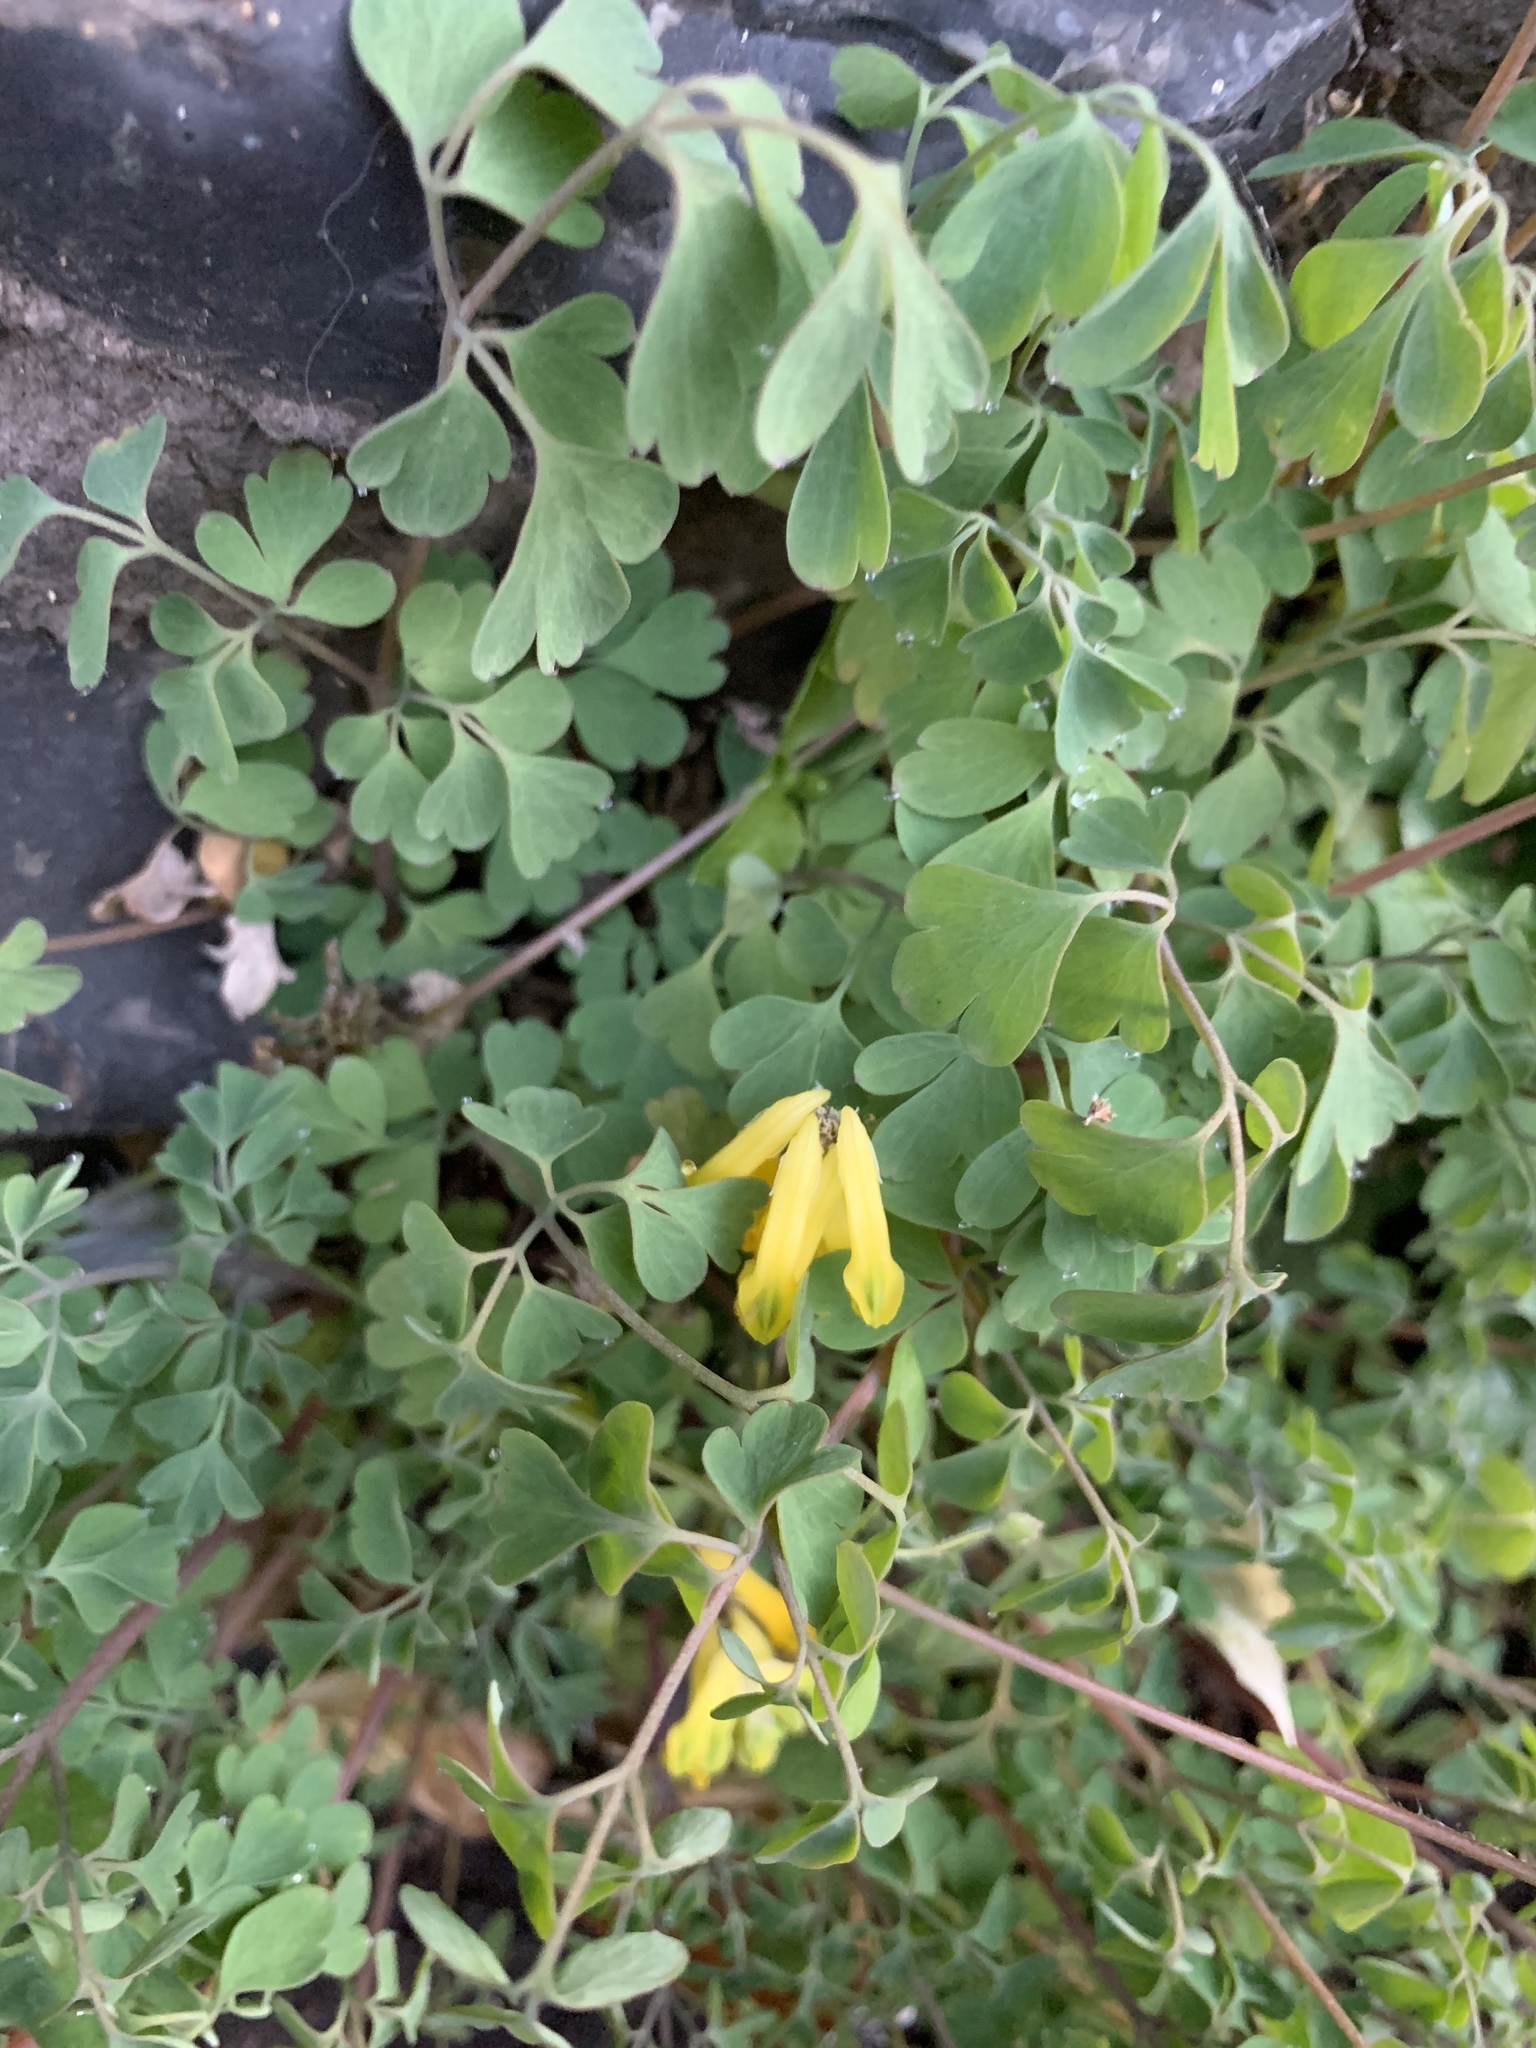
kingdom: Plantae
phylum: Tracheophyta
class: Magnoliopsida
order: Ranunculales
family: Papaveraceae
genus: Pseudofumaria
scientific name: Pseudofumaria lutea
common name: Yellow corydalis
